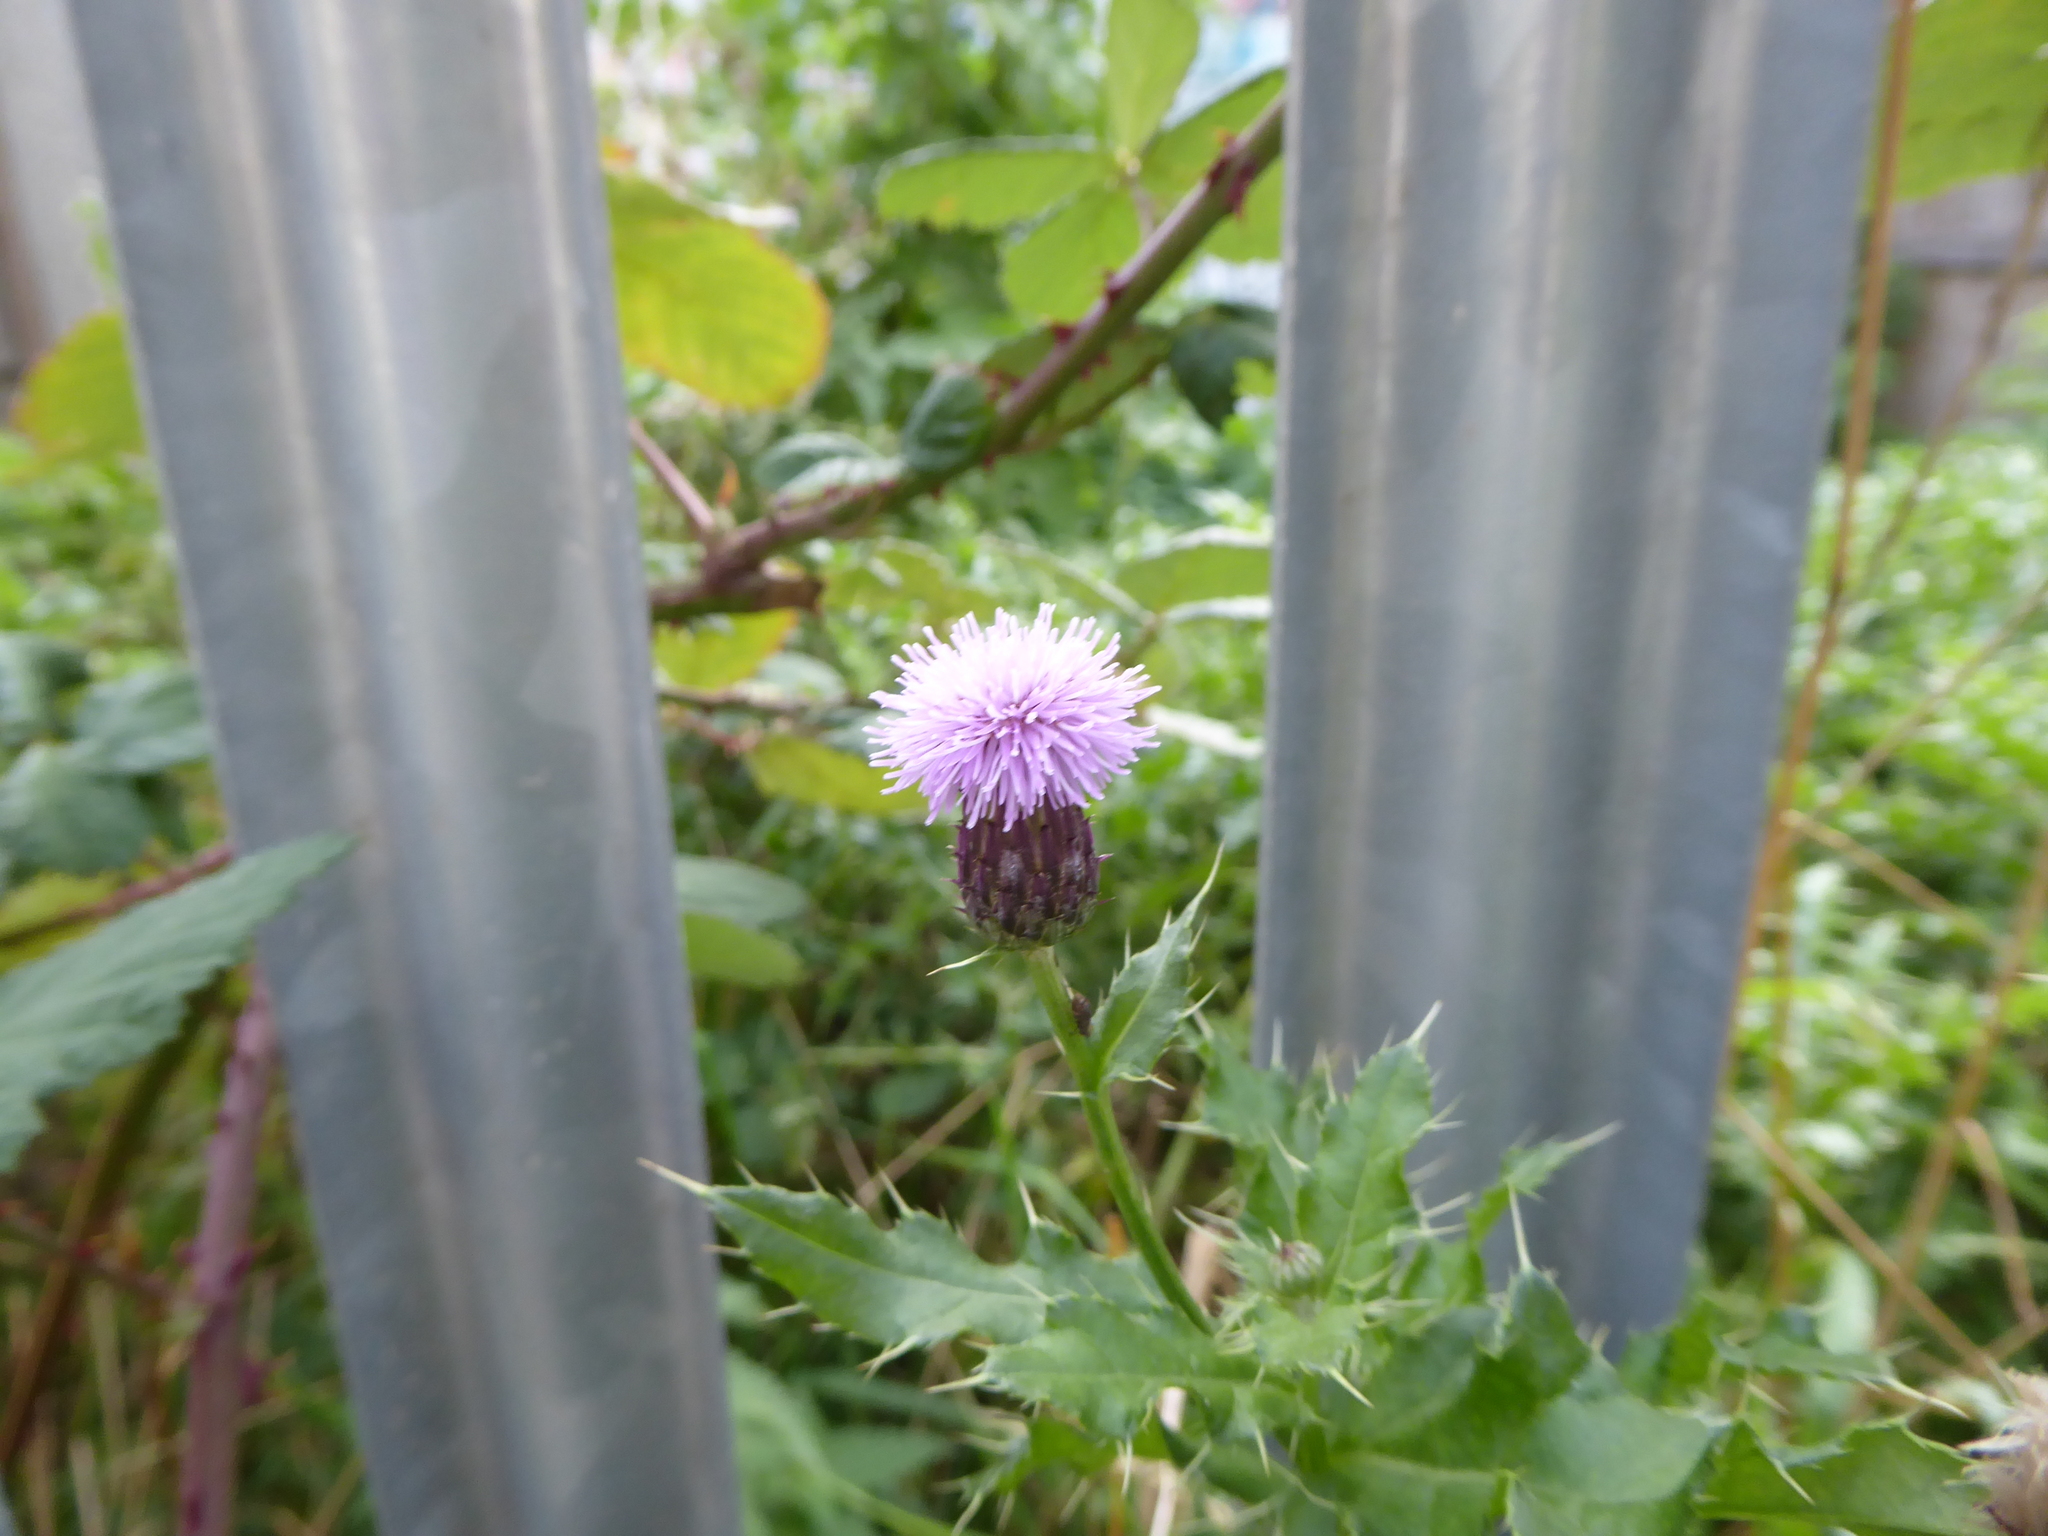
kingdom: Plantae
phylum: Tracheophyta
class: Magnoliopsida
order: Asterales
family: Asteraceae
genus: Cirsium
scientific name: Cirsium arvense
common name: Creeping thistle
